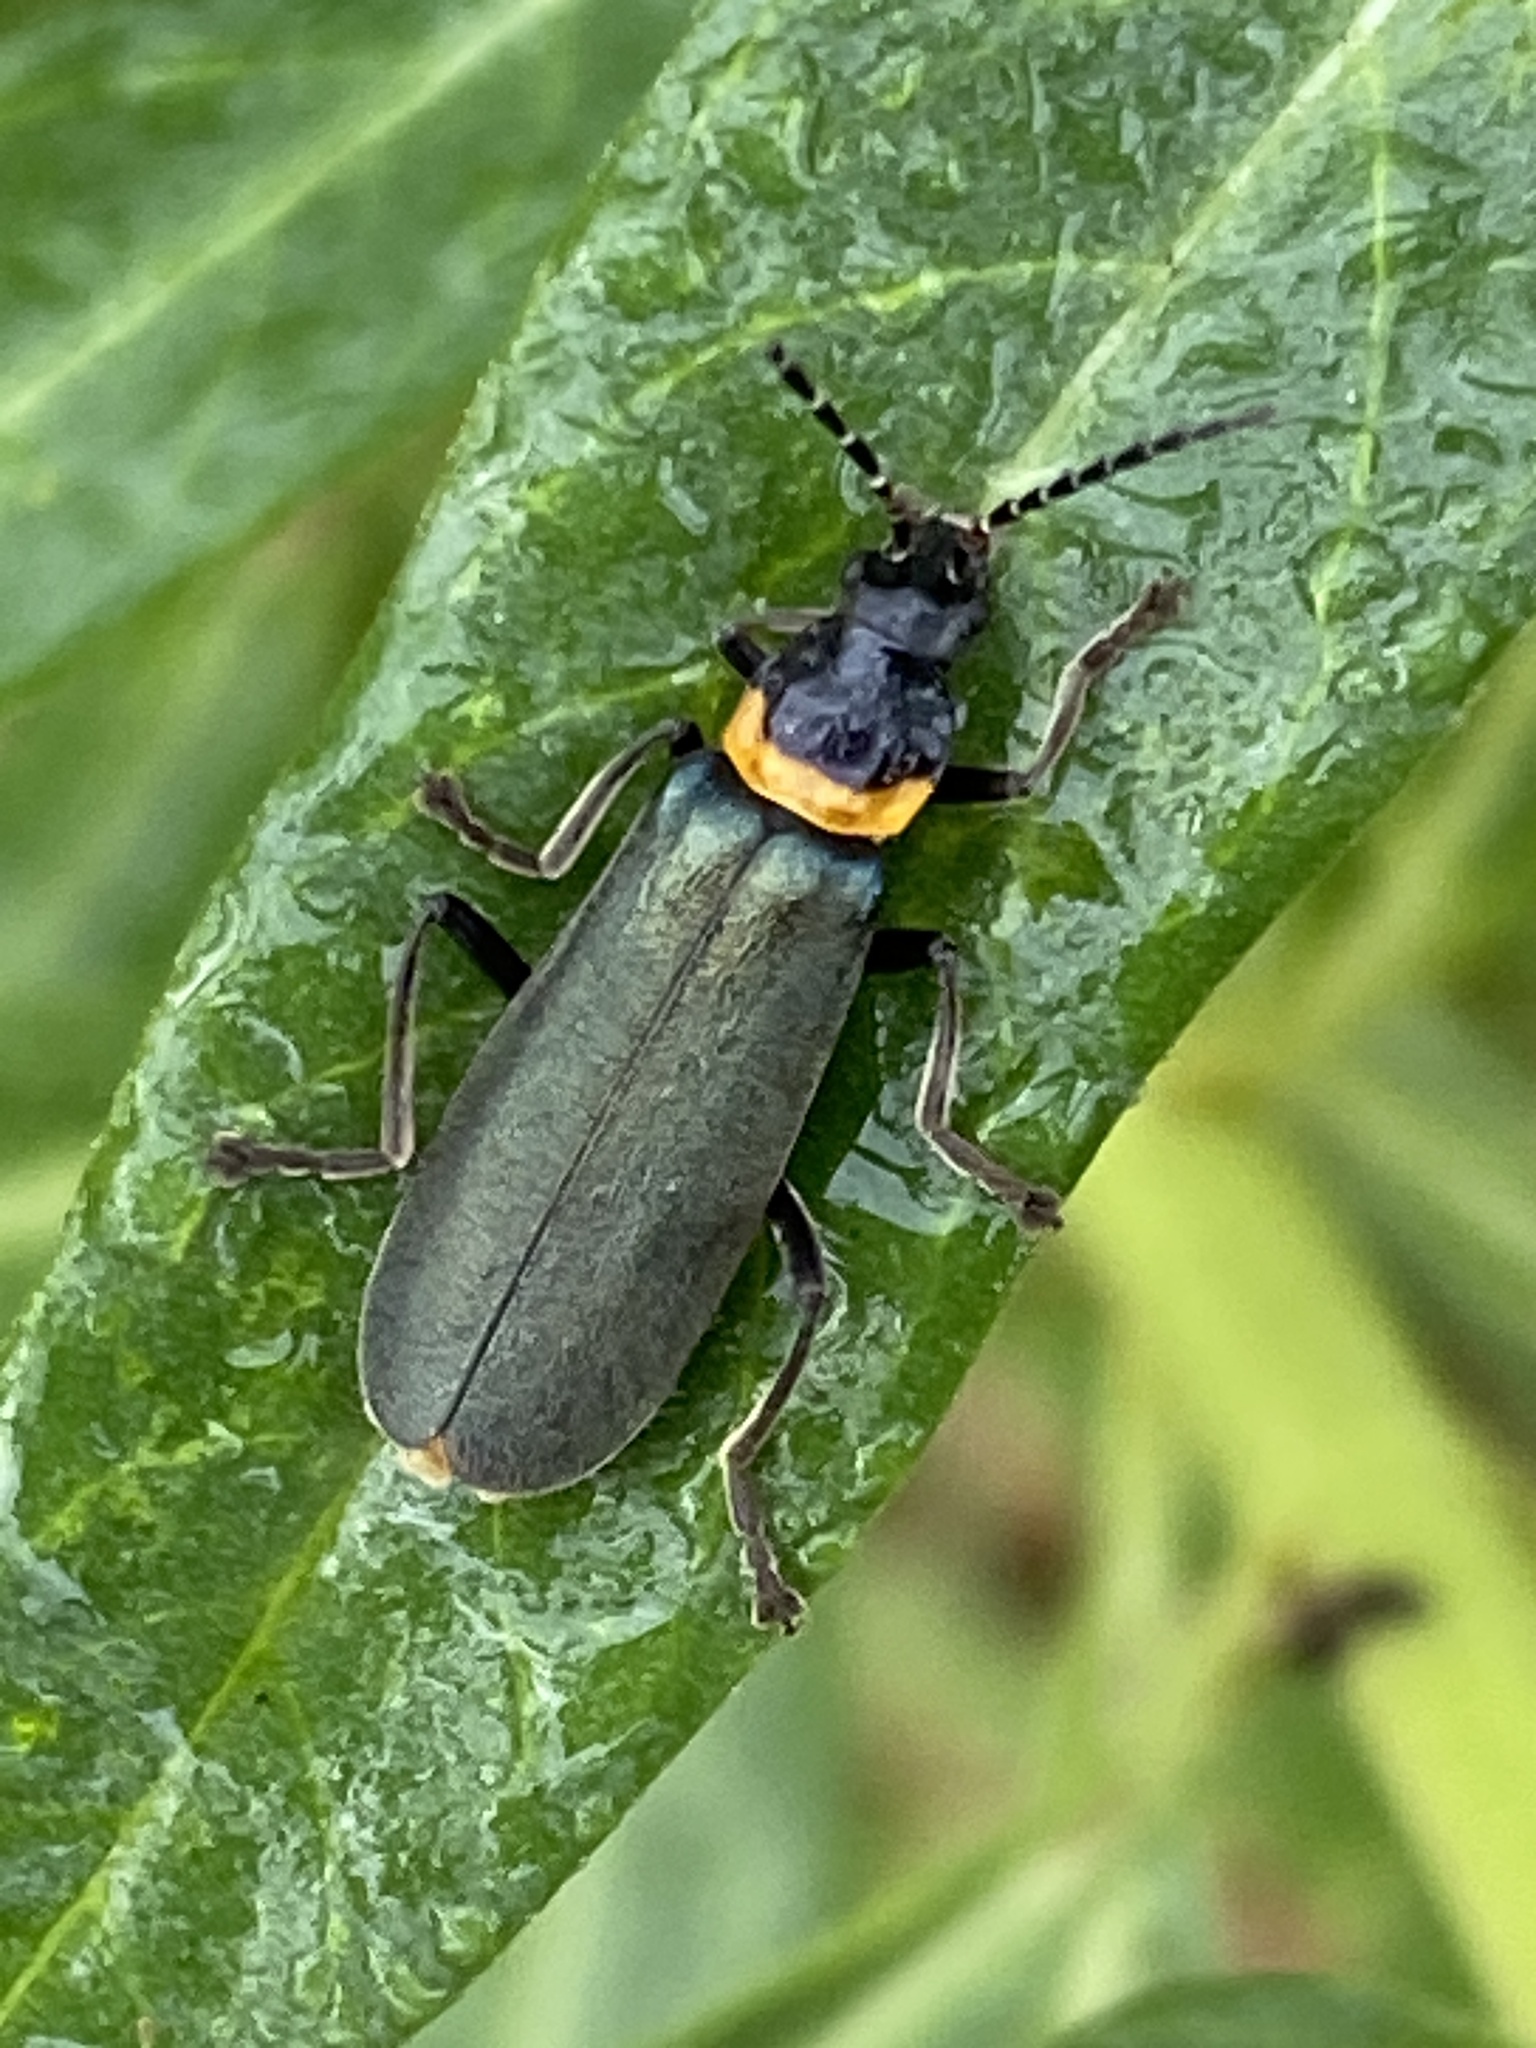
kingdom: Animalia
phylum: Arthropoda
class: Insecta
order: Coleoptera
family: Cantharidae
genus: Chauliognathus
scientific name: Chauliognathus
